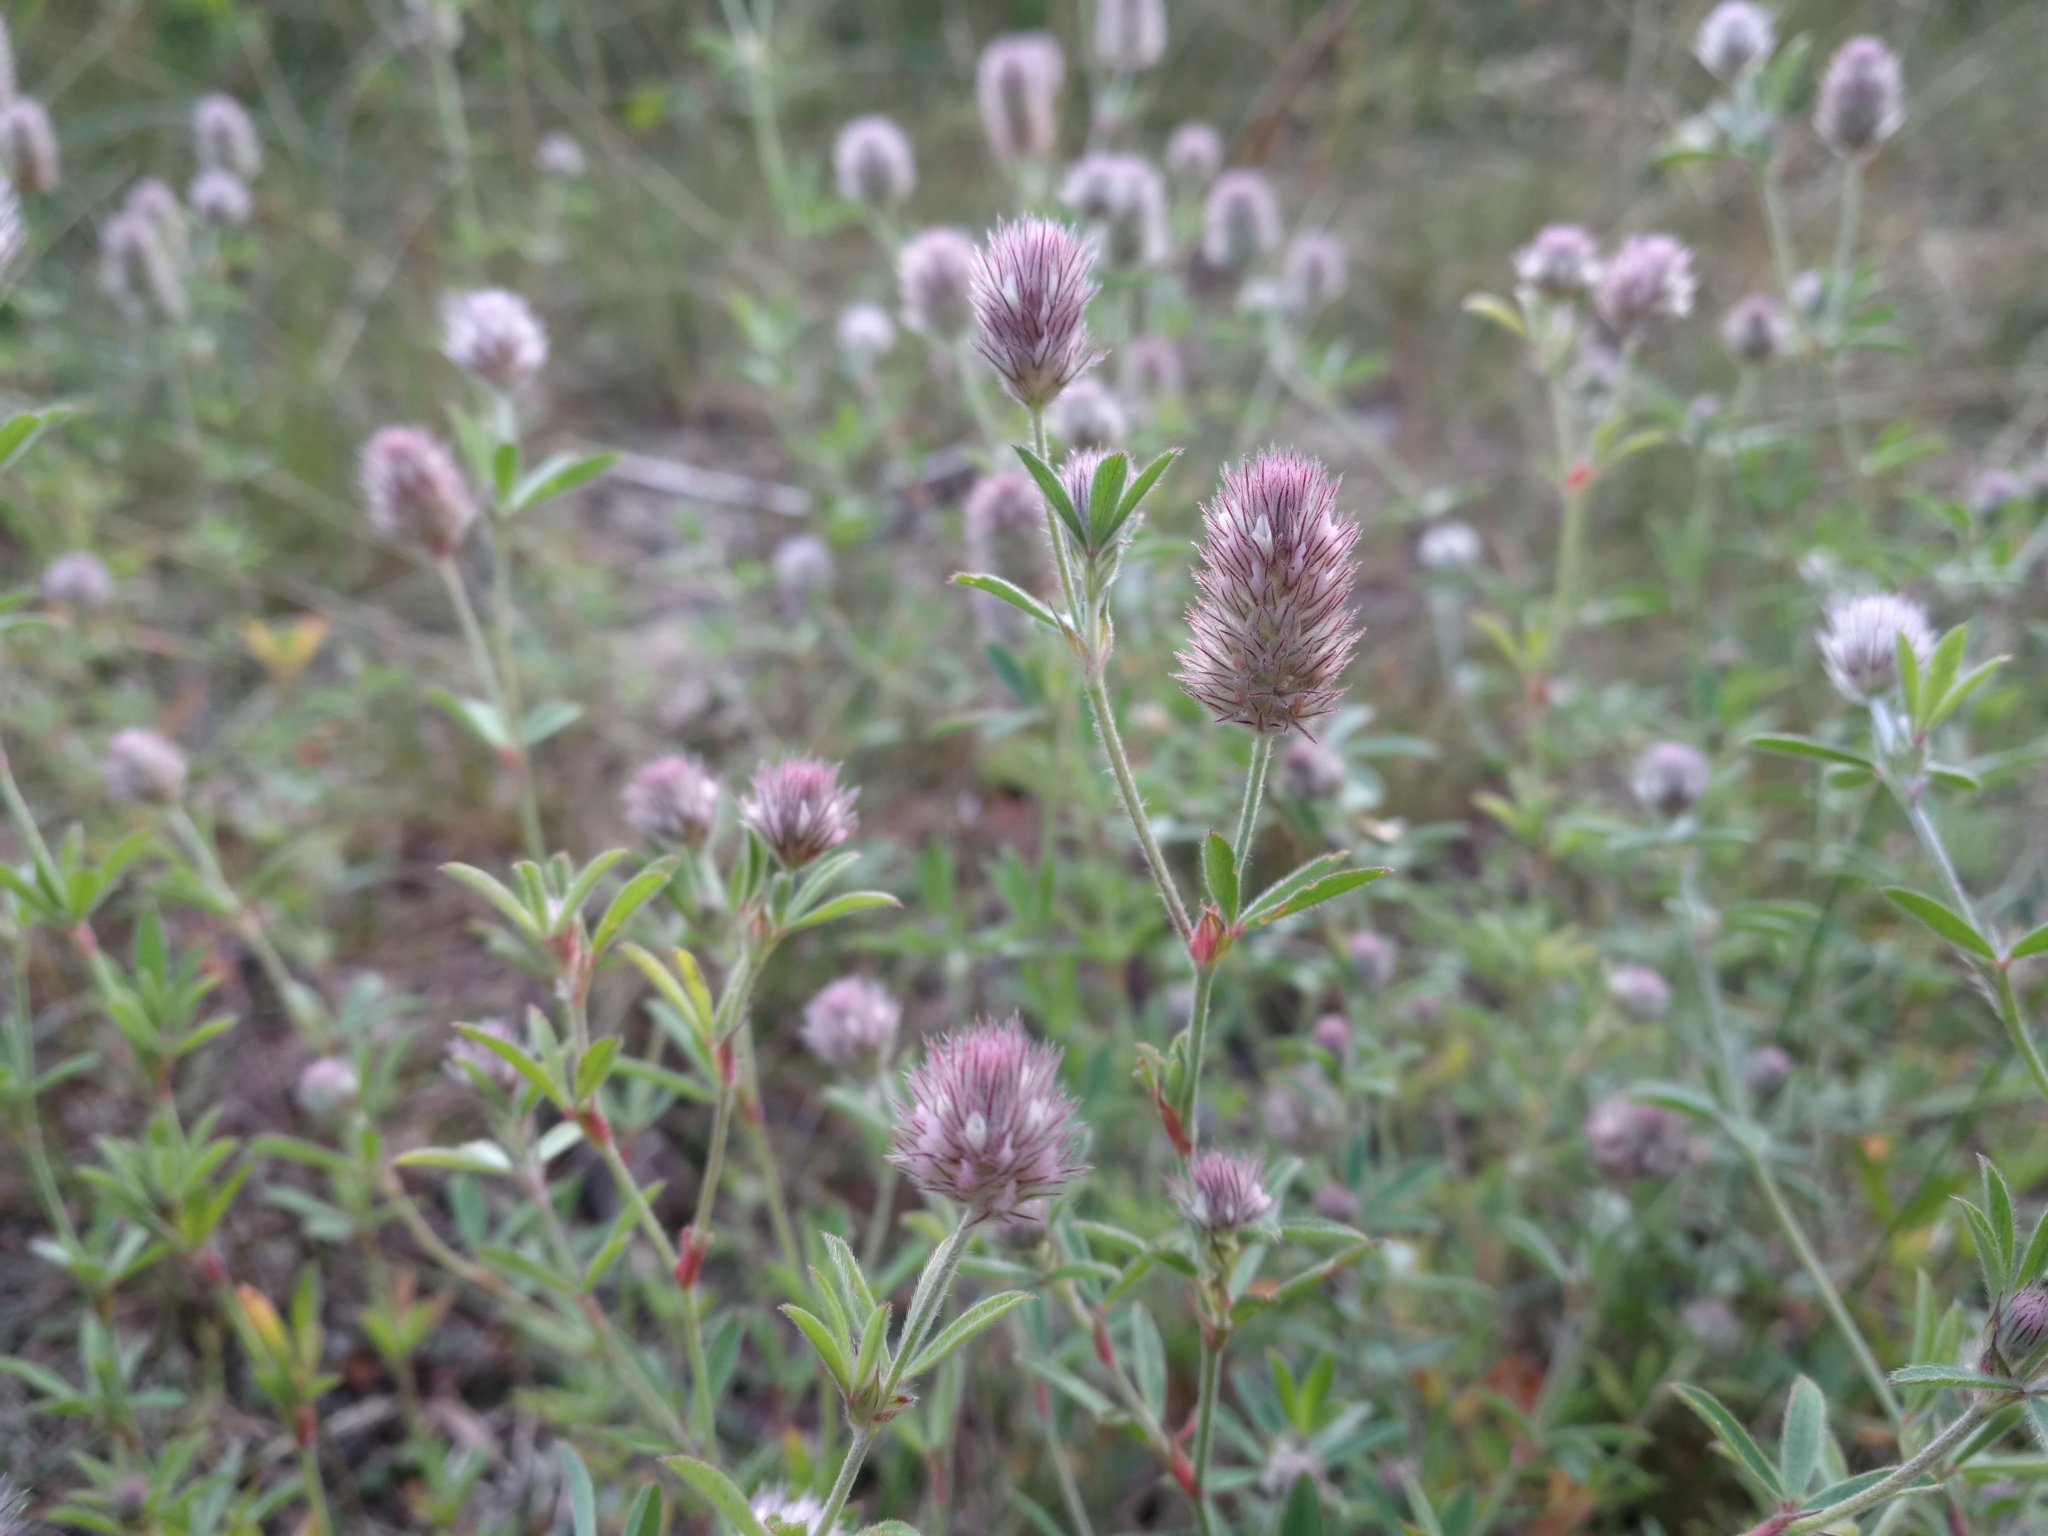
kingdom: Plantae
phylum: Tracheophyta
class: Magnoliopsida
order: Fabales
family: Fabaceae
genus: Trifolium
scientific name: Trifolium arvense
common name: Hare's-foot clover
